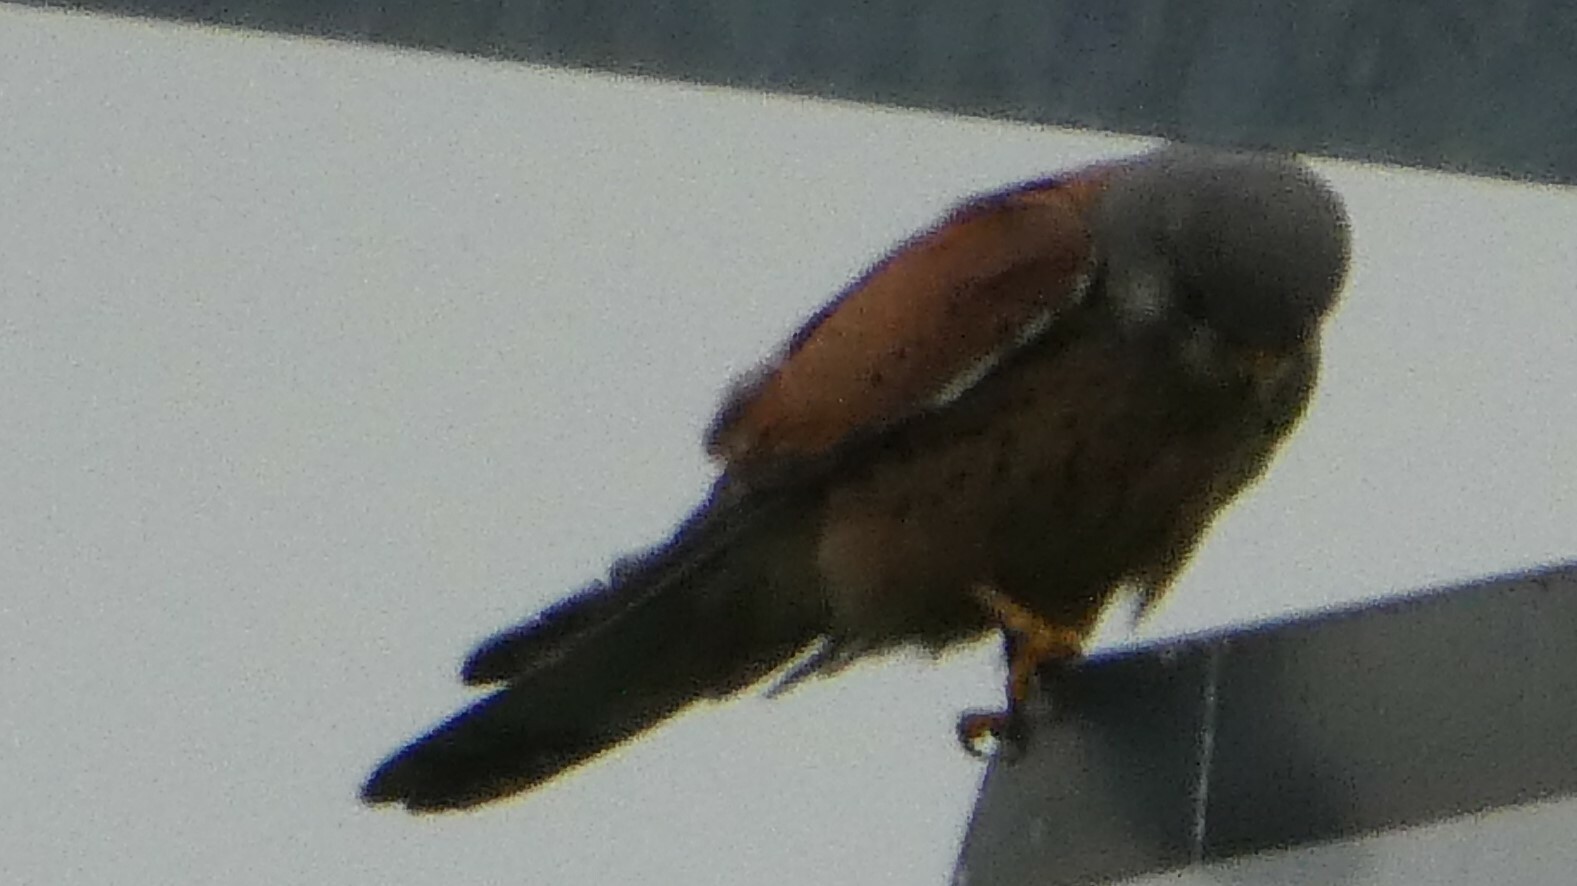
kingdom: Animalia
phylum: Chordata
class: Aves
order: Falconiformes
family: Falconidae
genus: Falco
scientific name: Falco tinnunculus
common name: Common kestrel
